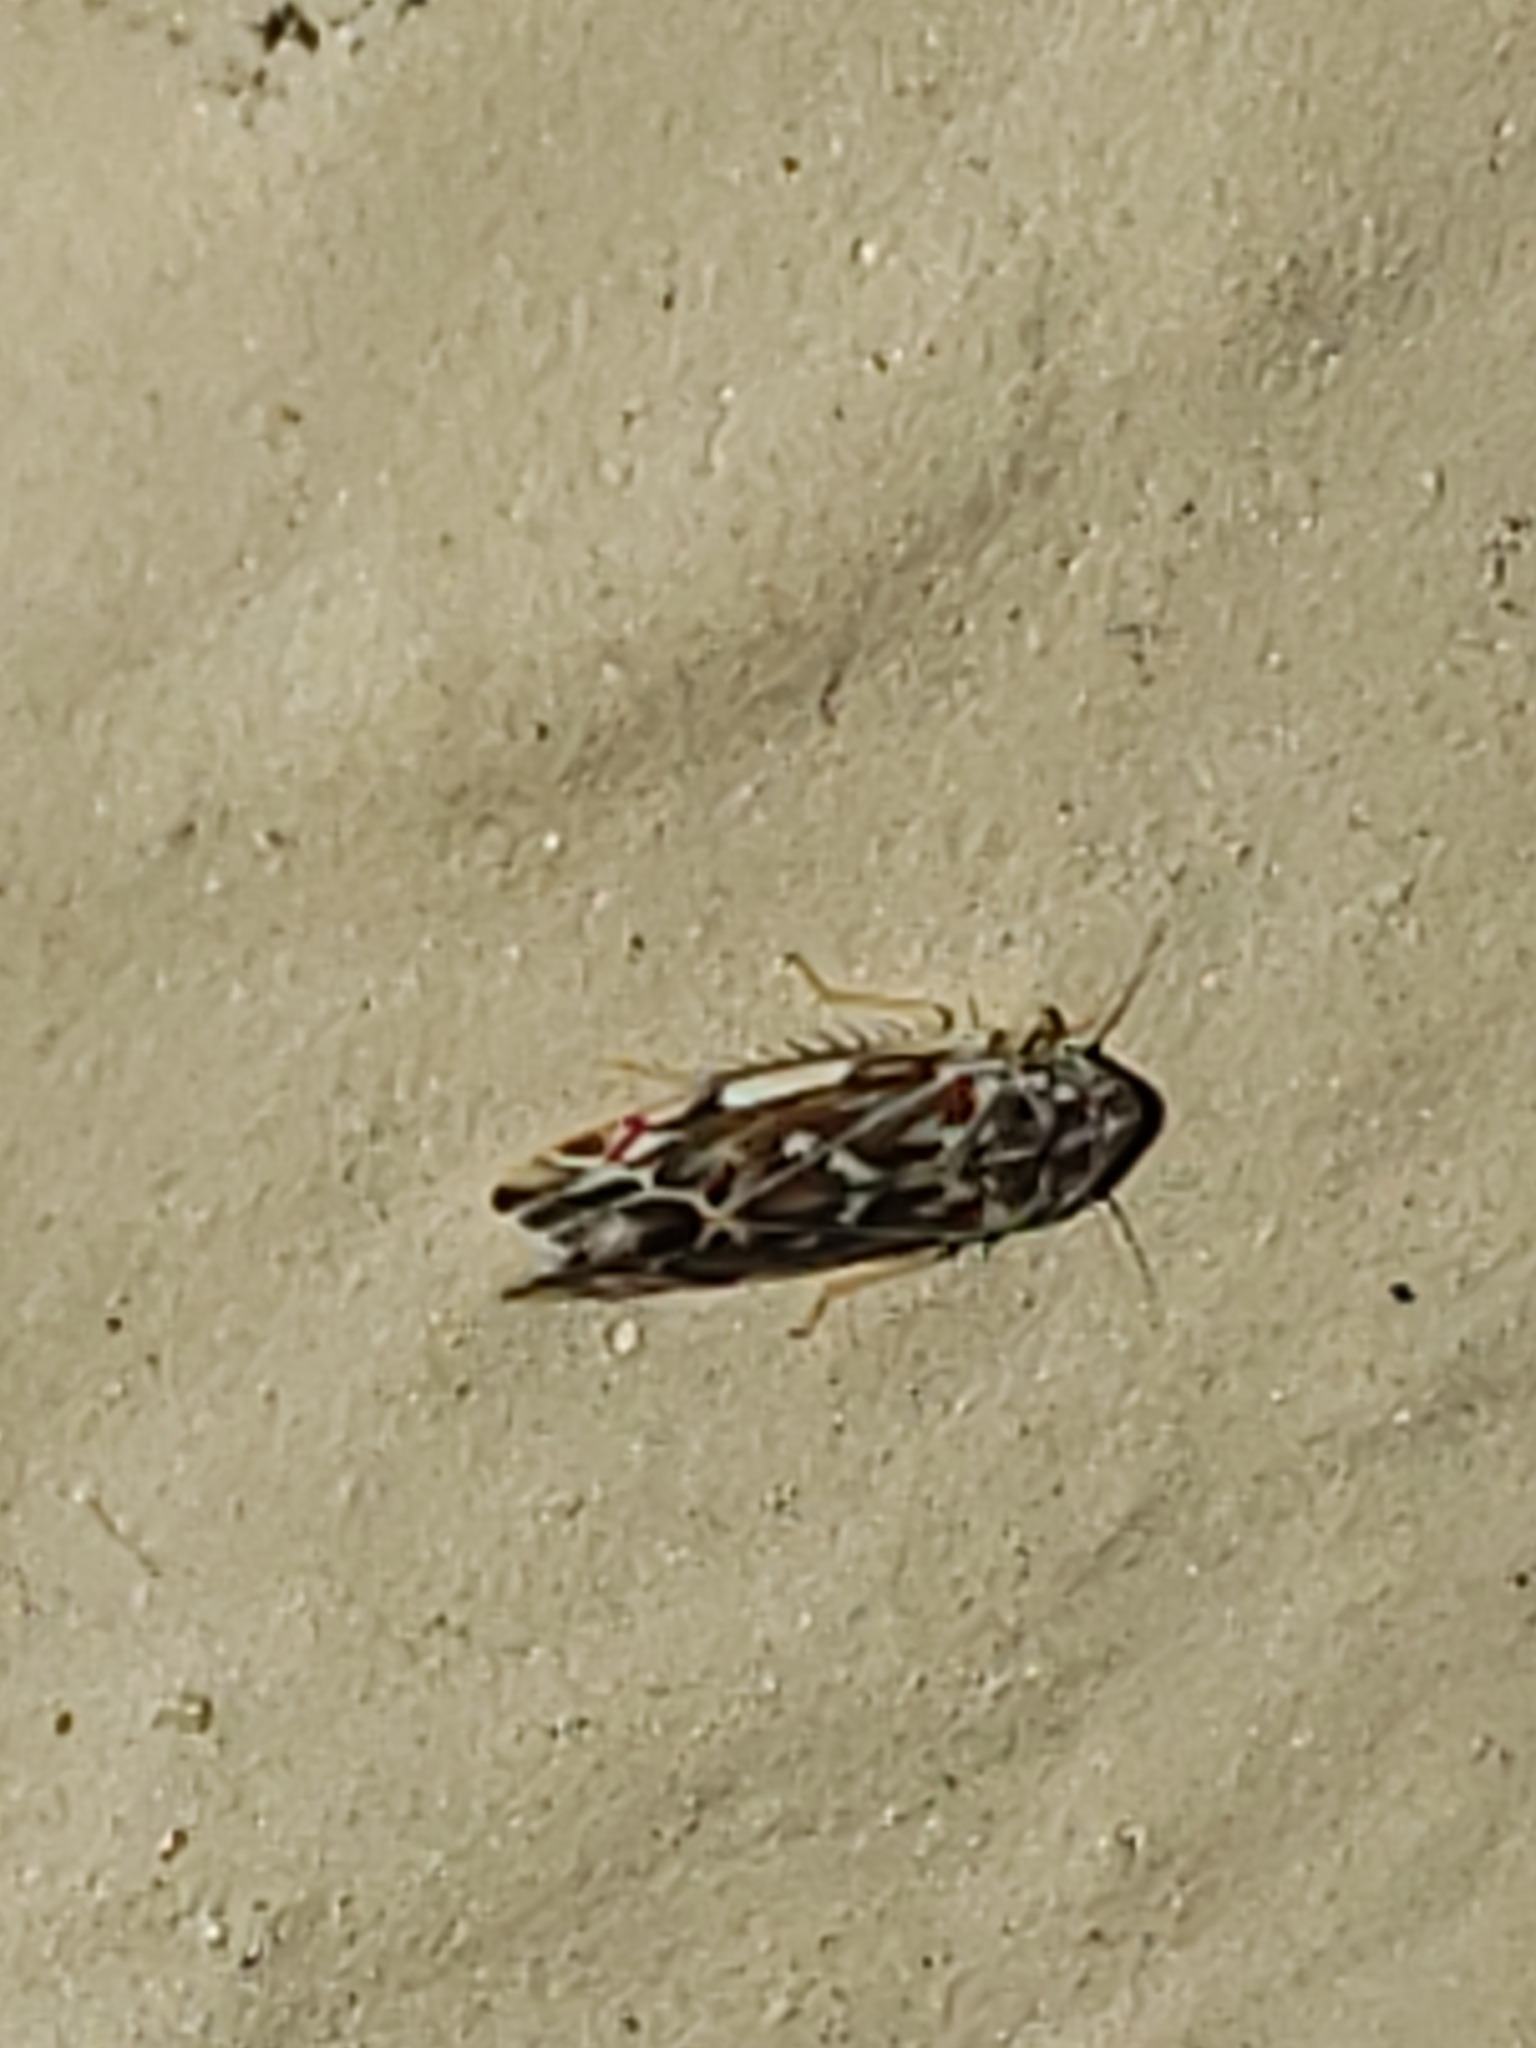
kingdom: Animalia
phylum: Arthropoda
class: Insecta
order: Hemiptera
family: Cicadellidae
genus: Erasmoneura
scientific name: Erasmoneura vulnerata
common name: The wounded leafhopper
